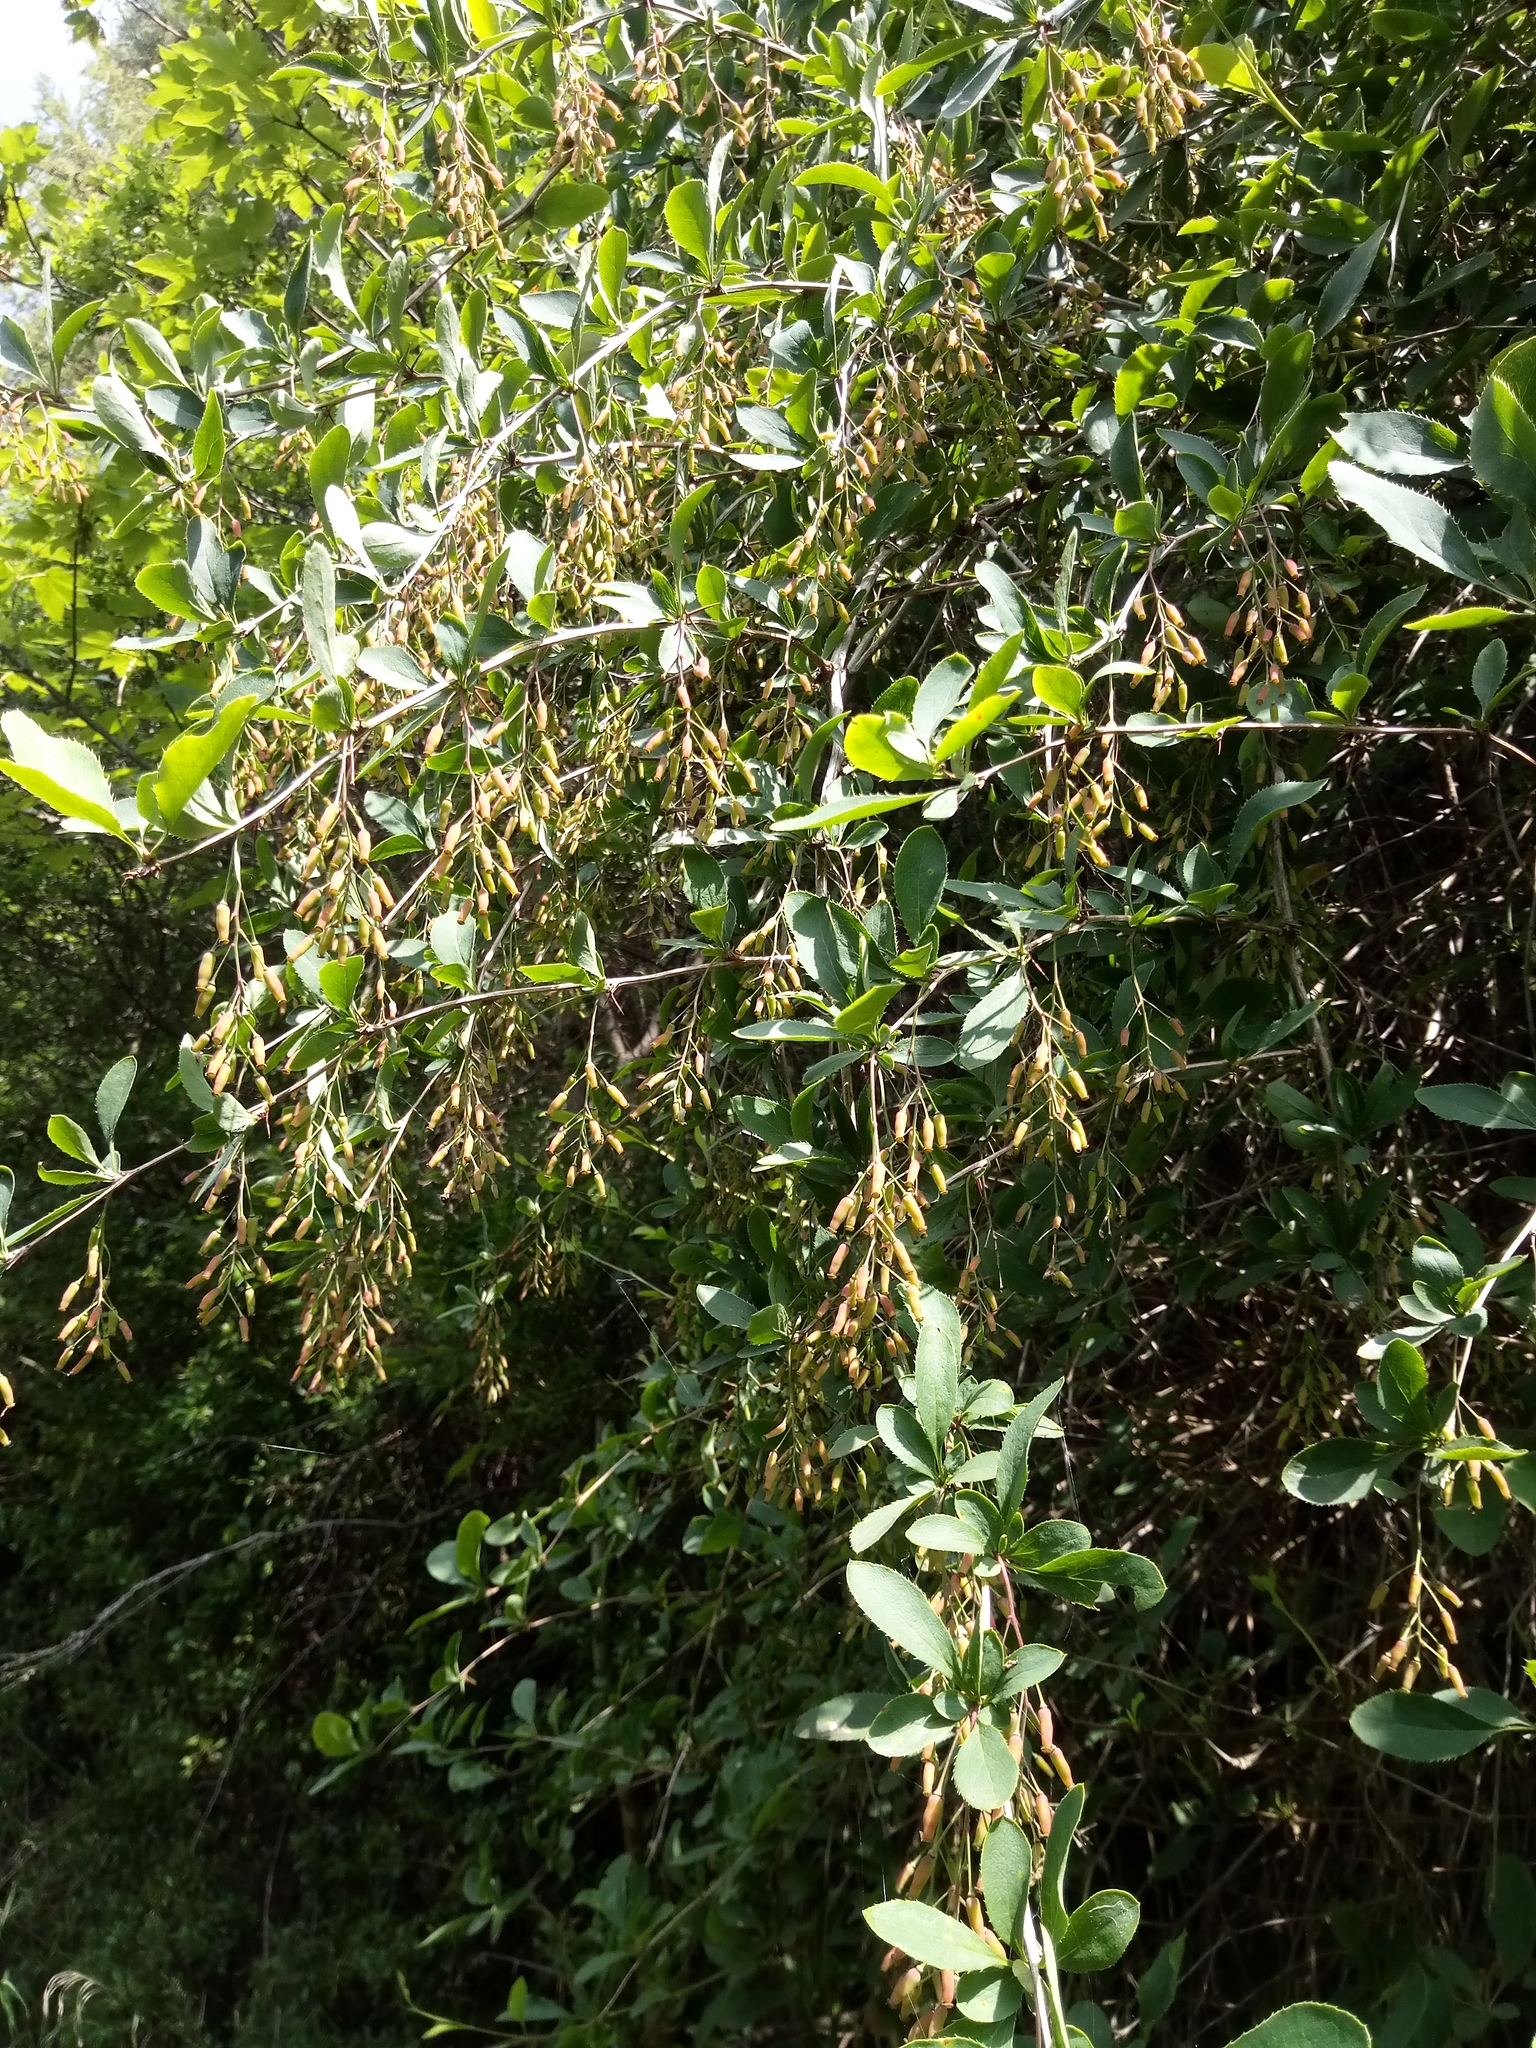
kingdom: Plantae
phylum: Tracheophyta
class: Magnoliopsida
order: Ranunculales
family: Berberidaceae
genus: Berberis
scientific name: Berberis vulgaris
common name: Barberry
